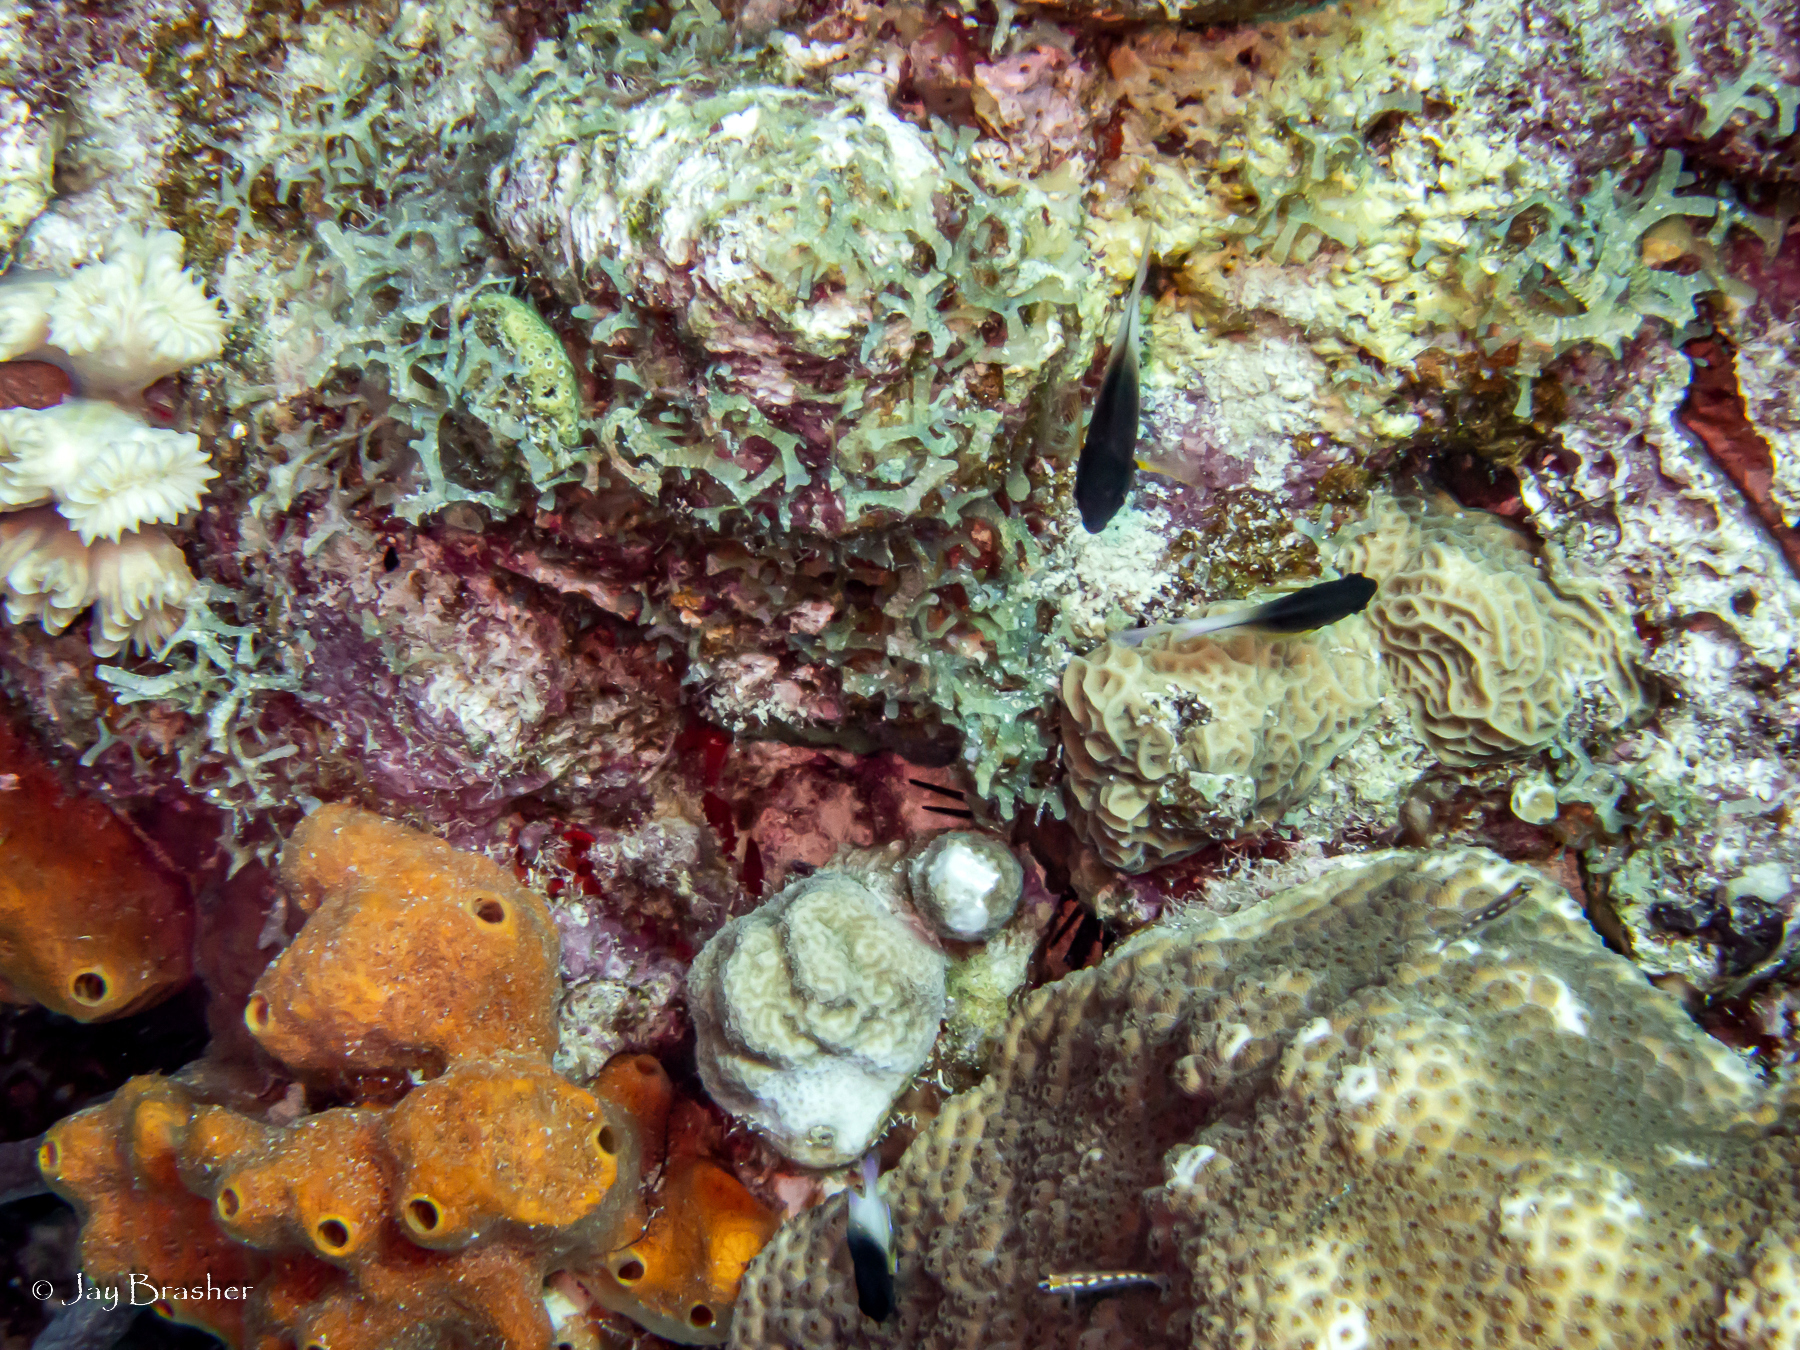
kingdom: Animalia
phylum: Porifera
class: Demospongiae
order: Axinellida
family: Raspailiidae
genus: Ectyoplasia
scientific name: Ectyoplasia ferox
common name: Brown encrusting octopus sponge
